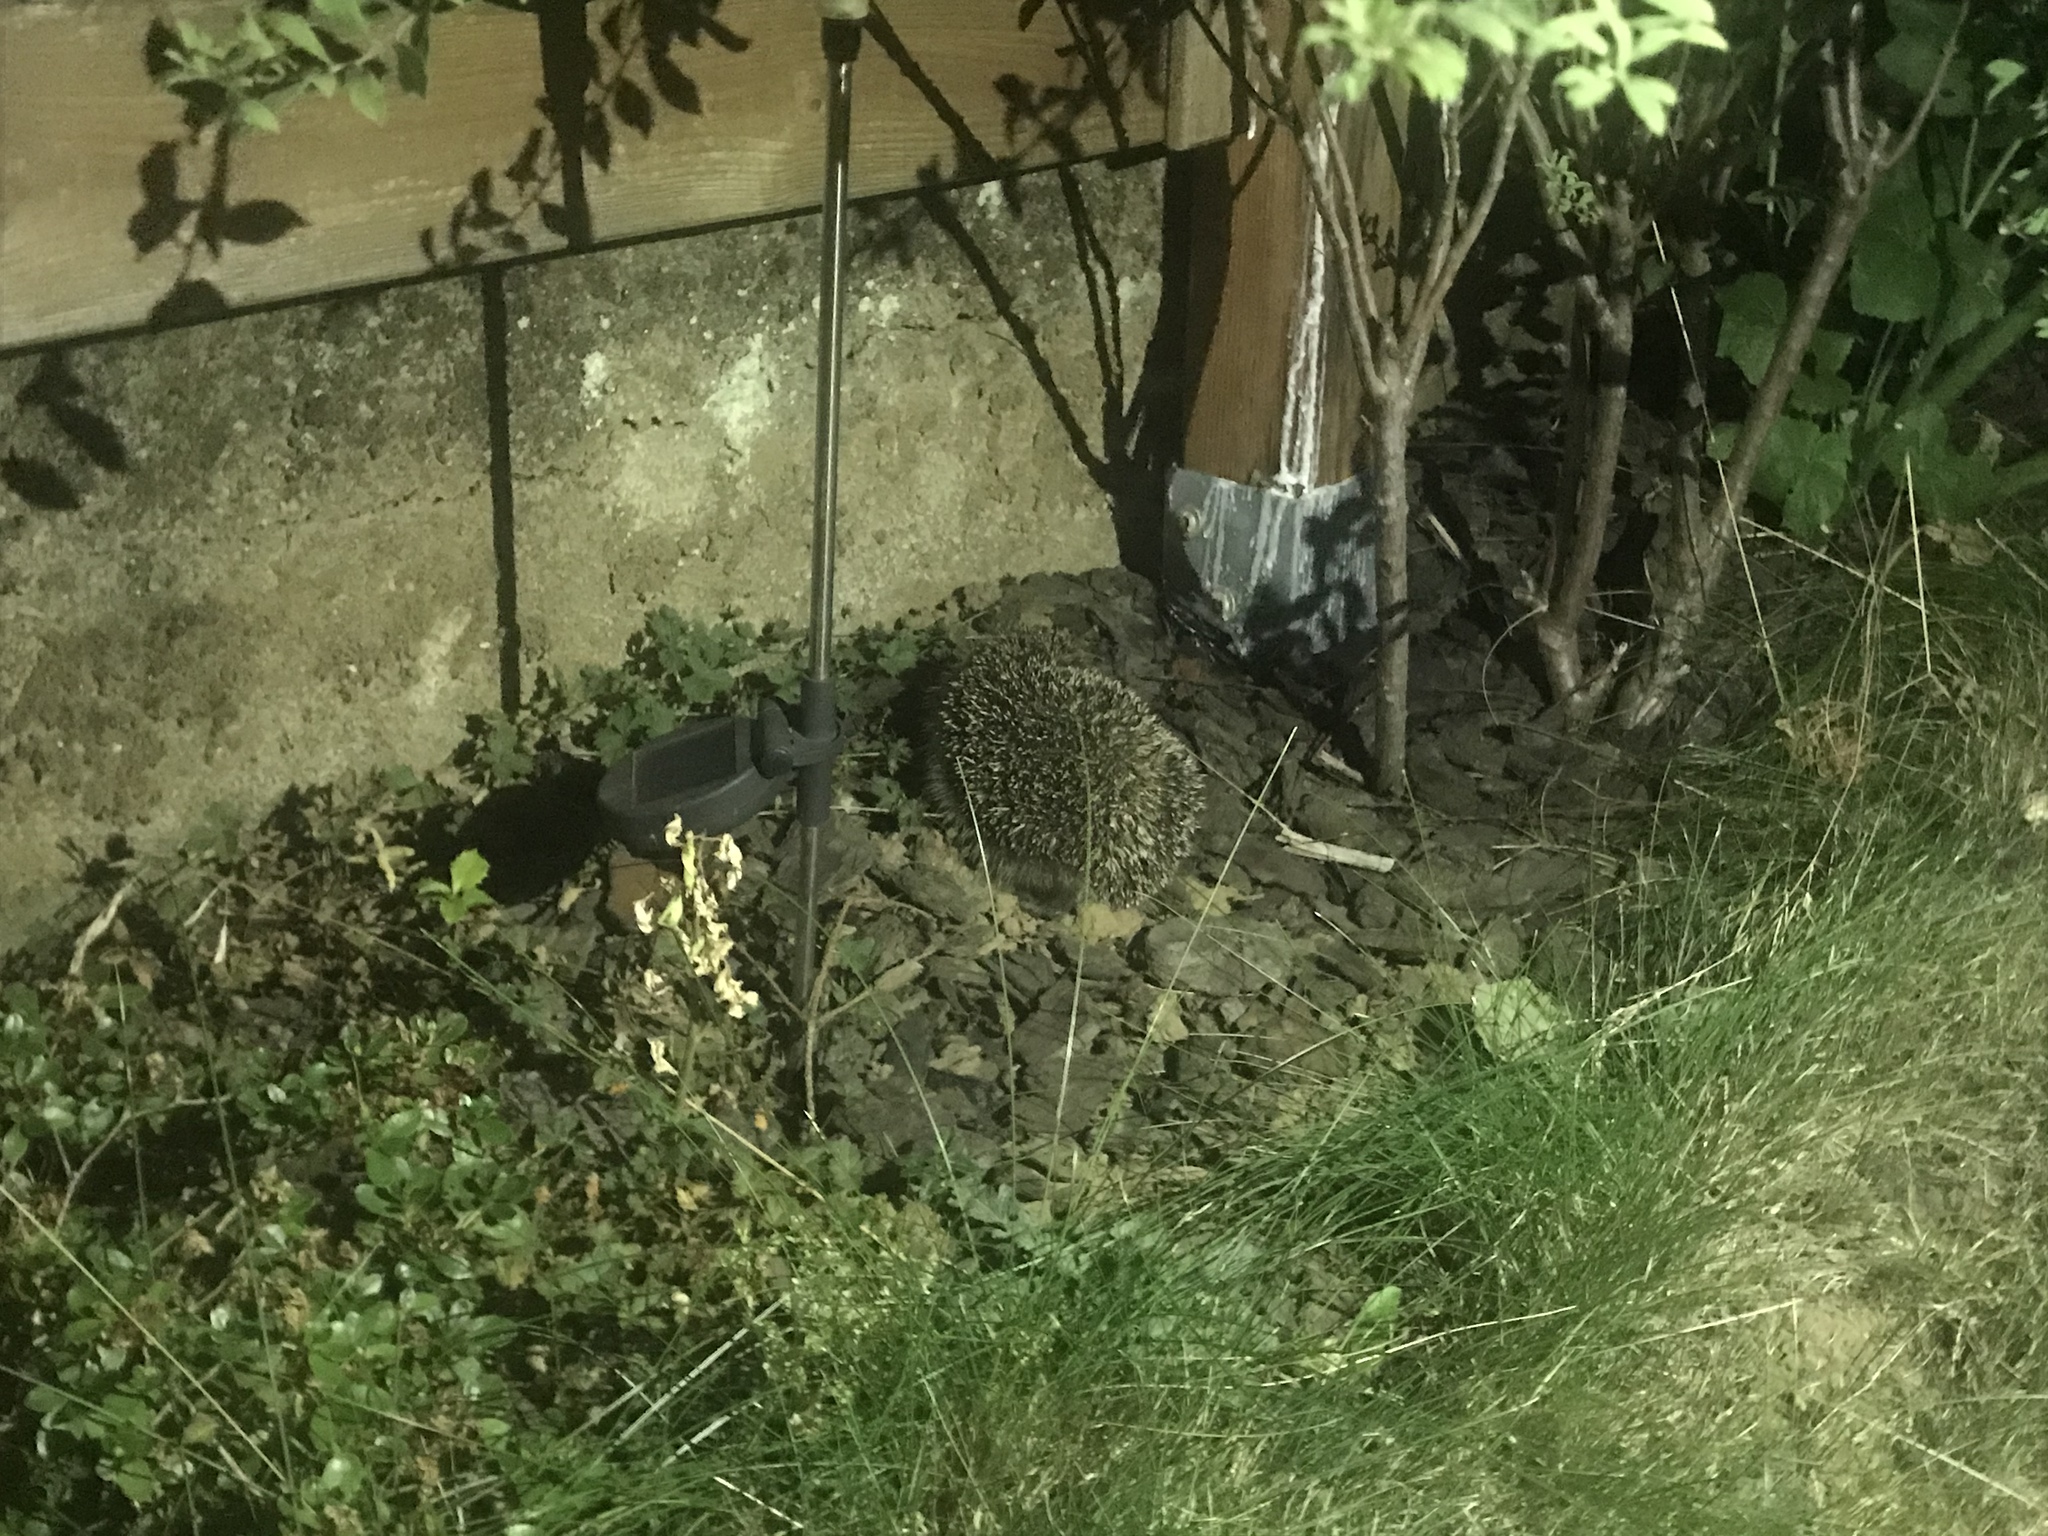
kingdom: Animalia
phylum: Chordata
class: Mammalia
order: Erinaceomorpha
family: Erinaceidae
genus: Erinaceus
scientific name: Erinaceus europaeus
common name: West european hedgehog
